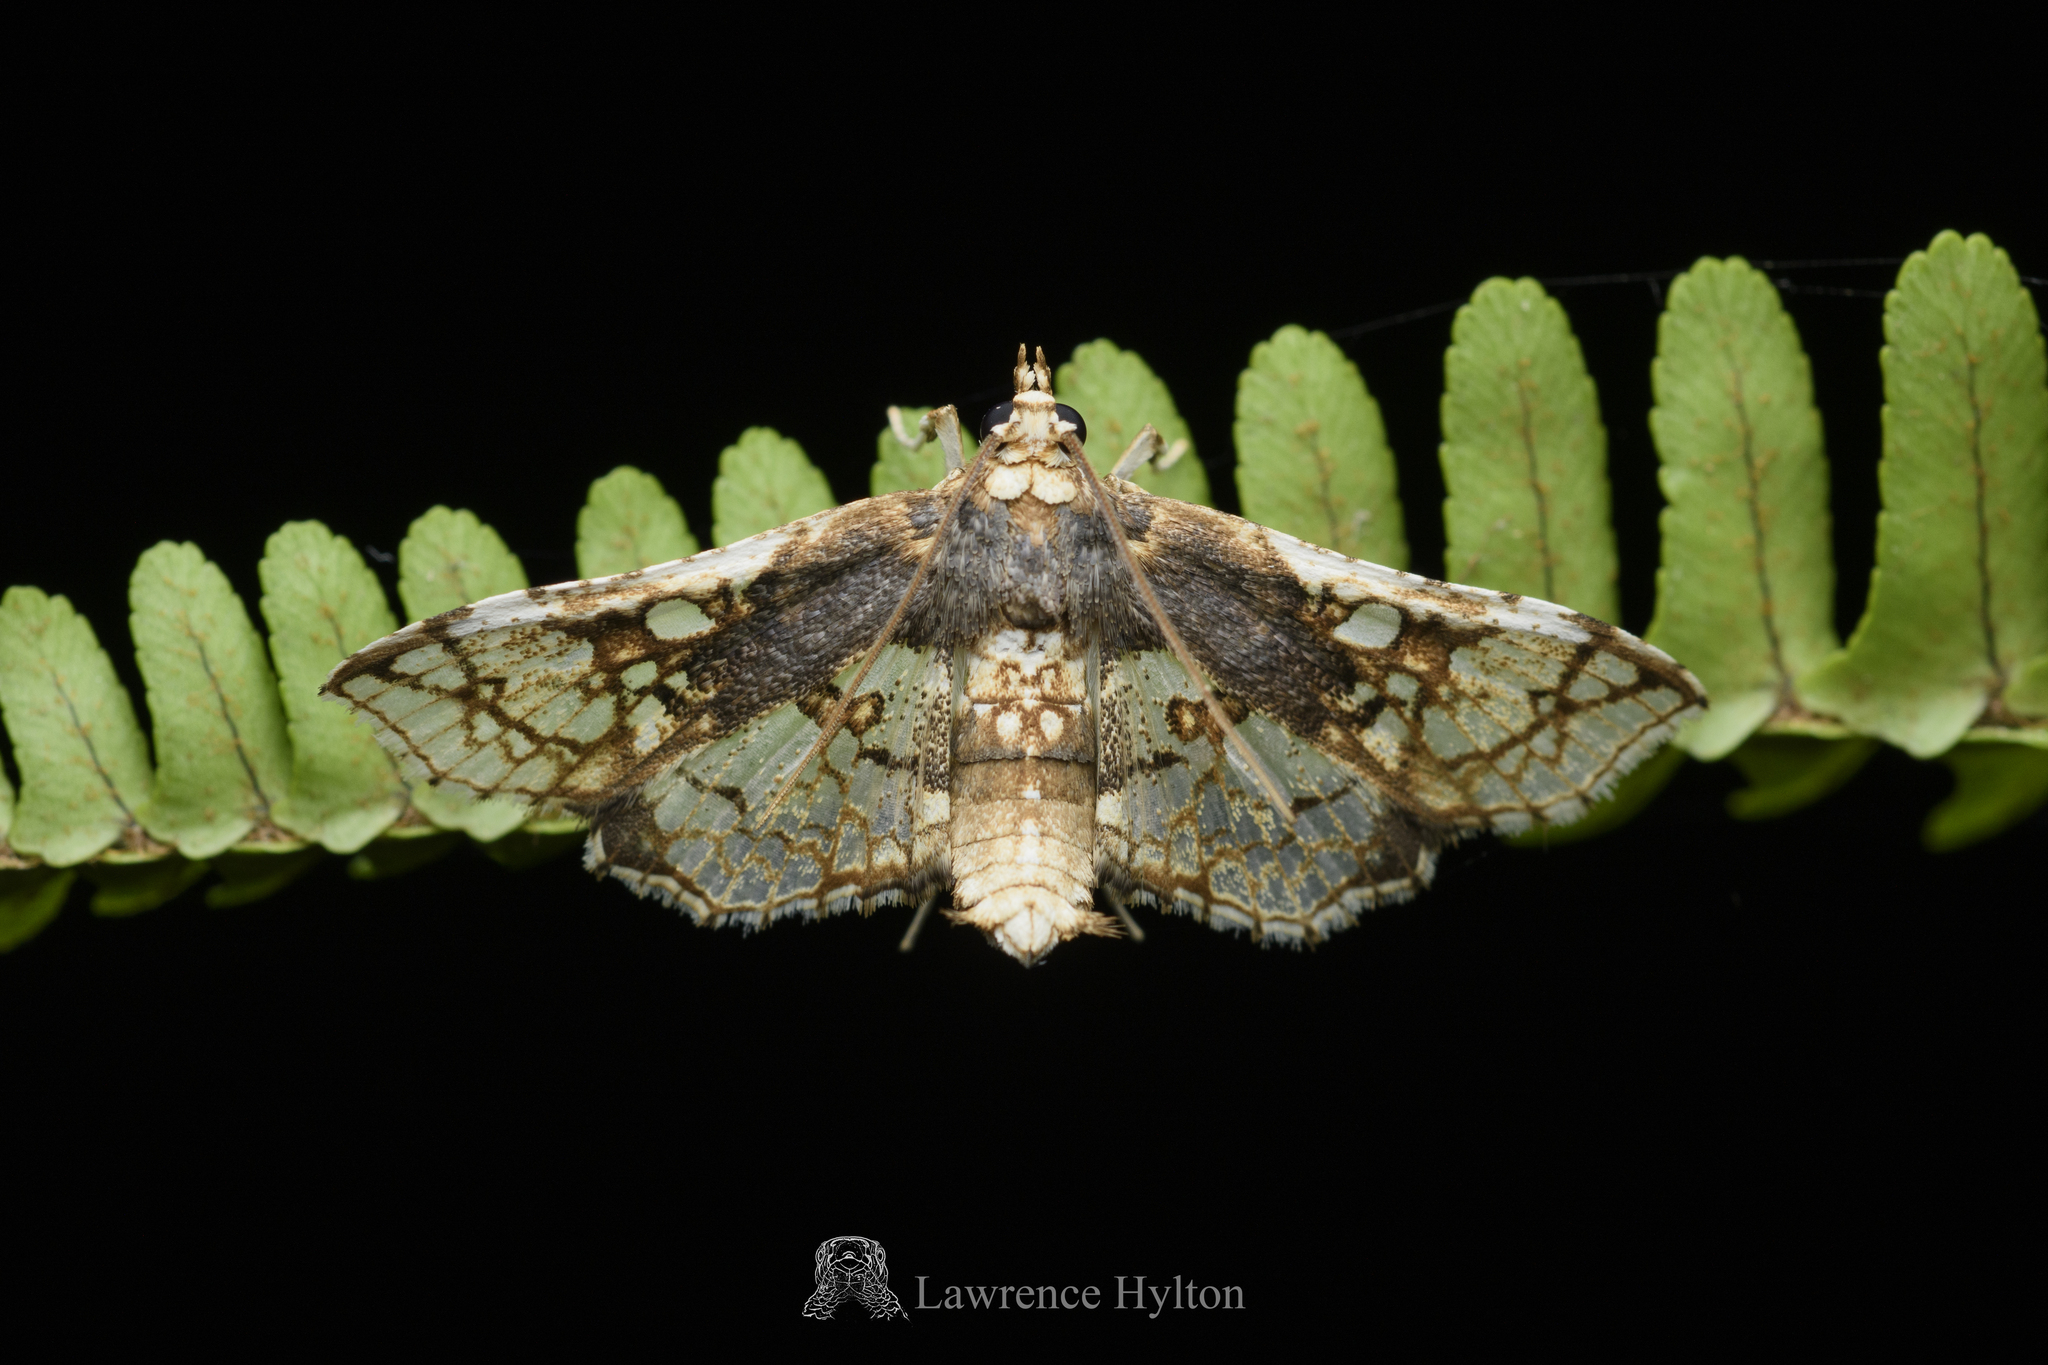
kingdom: Animalia
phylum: Arthropoda
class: Insecta
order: Lepidoptera
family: Crambidae
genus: Omphisa
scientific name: Omphisa anastomosalis
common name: Sweetpotato vineborer
